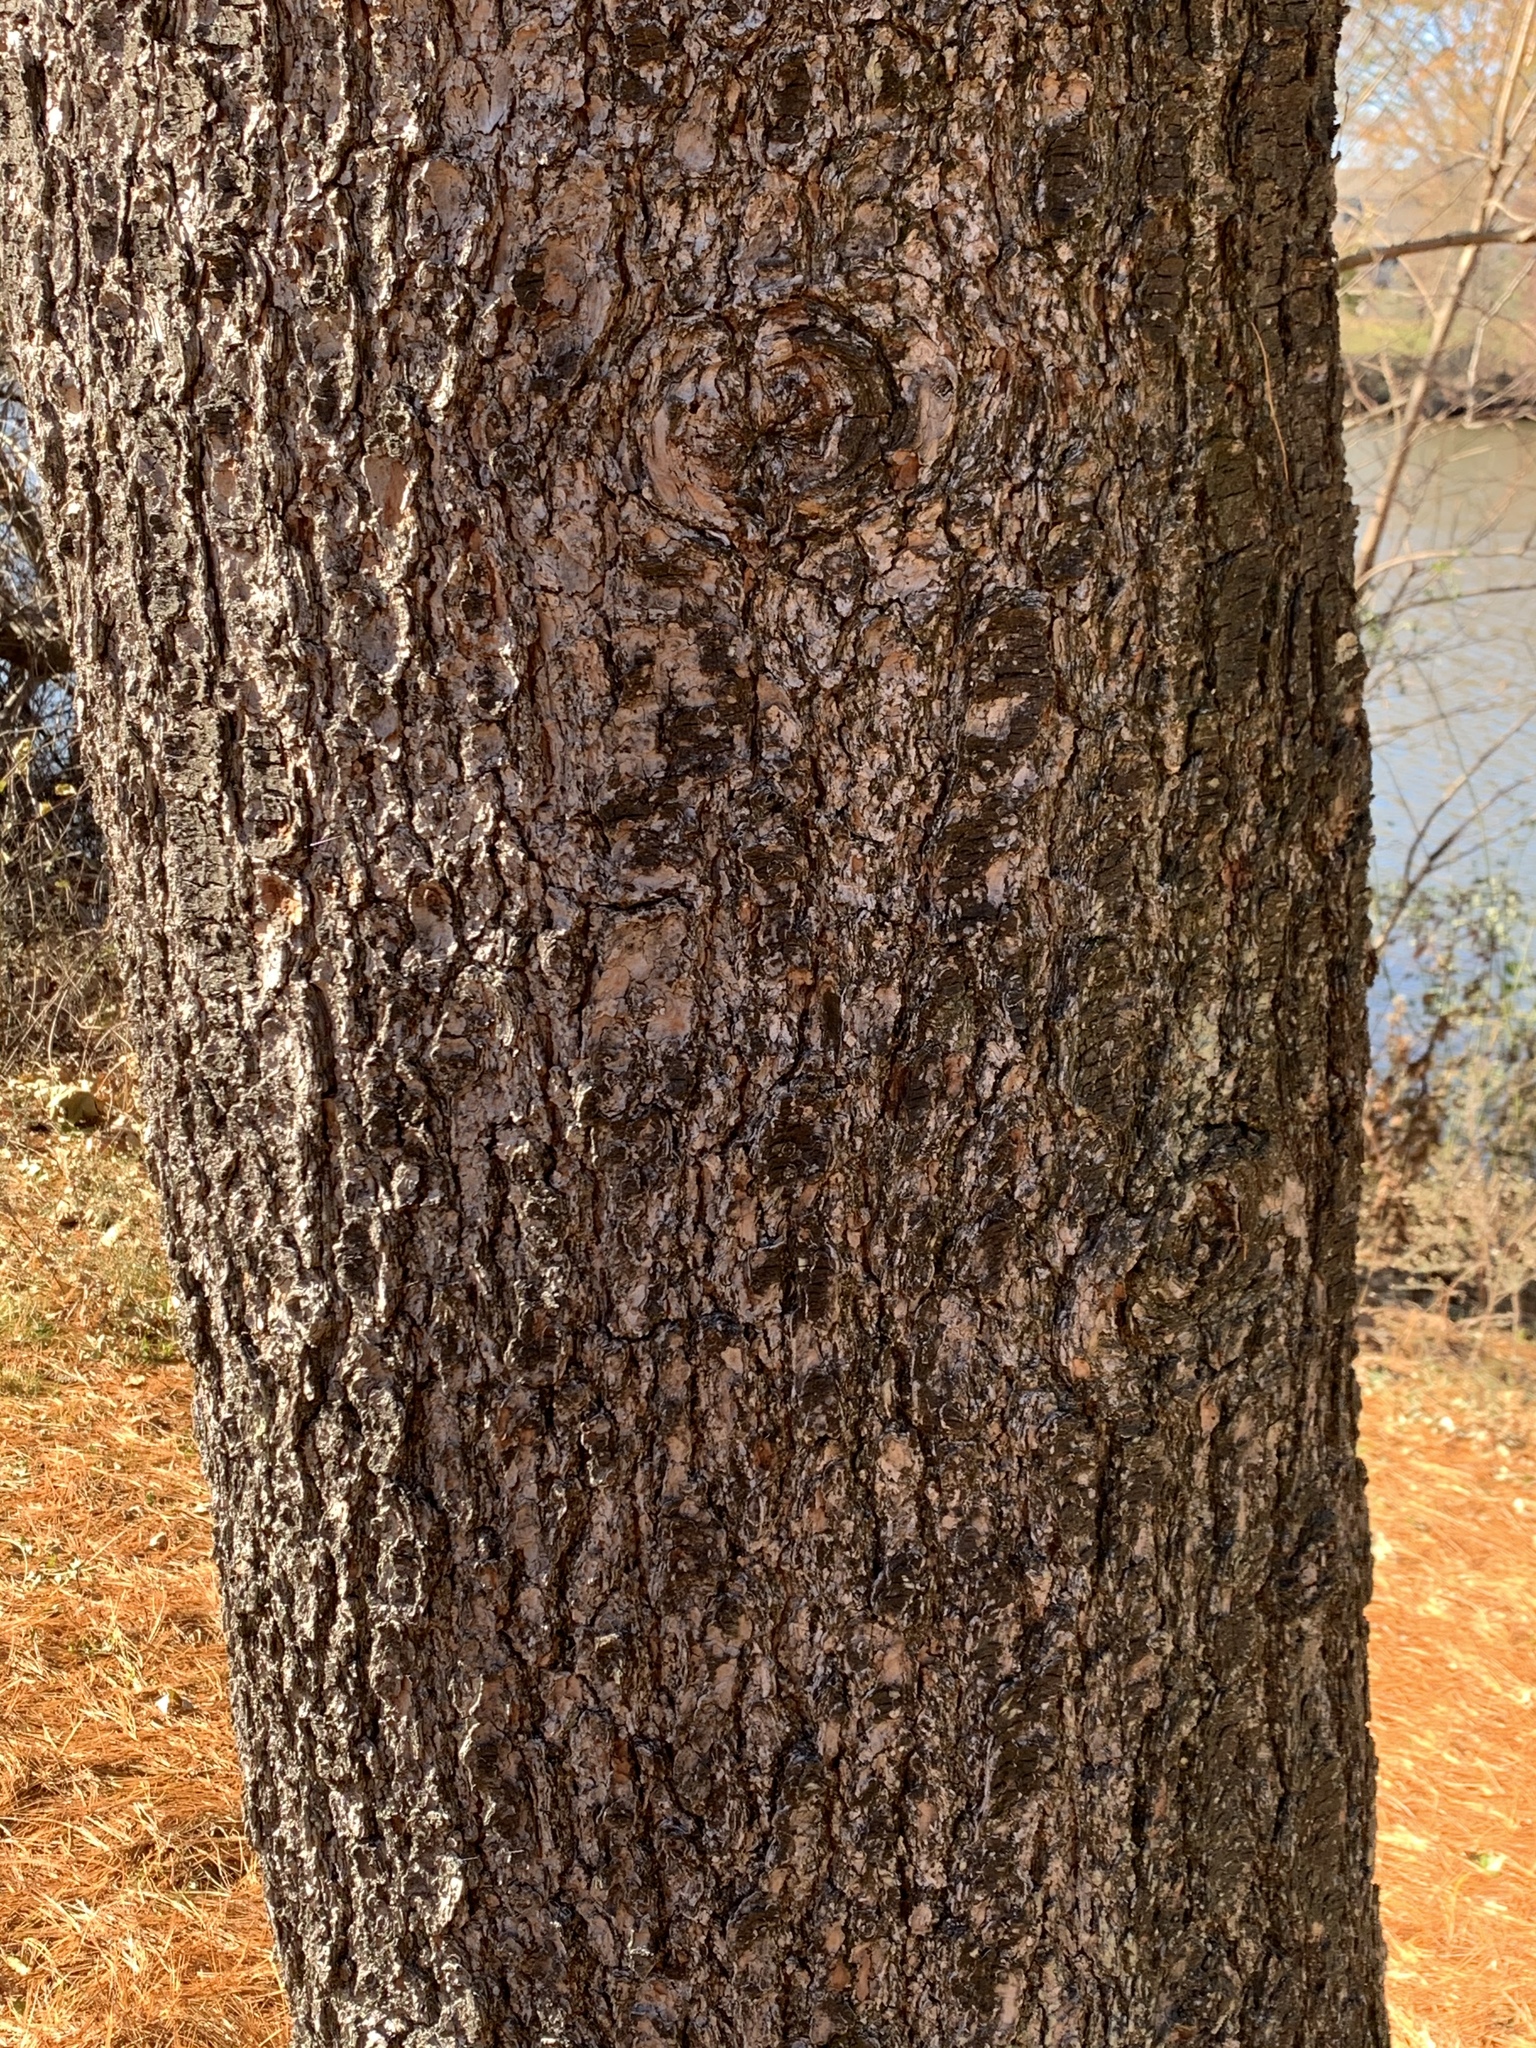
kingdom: Plantae
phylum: Tracheophyta
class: Pinopsida
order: Pinales
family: Pinaceae
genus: Pinus
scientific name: Pinus strobus
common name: Weymouth pine
